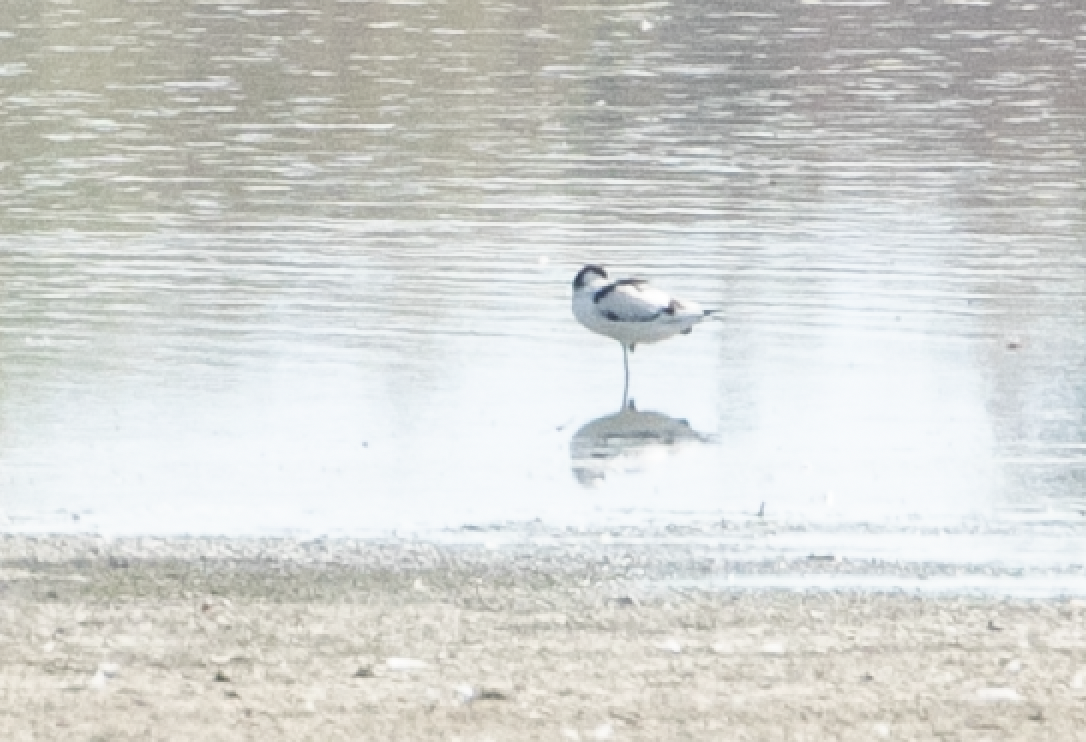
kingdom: Animalia
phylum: Chordata
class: Aves
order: Charadriiformes
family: Recurvirostridae
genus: Recurvirostra
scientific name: Recurvirostra avosetta
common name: Pied avocet
